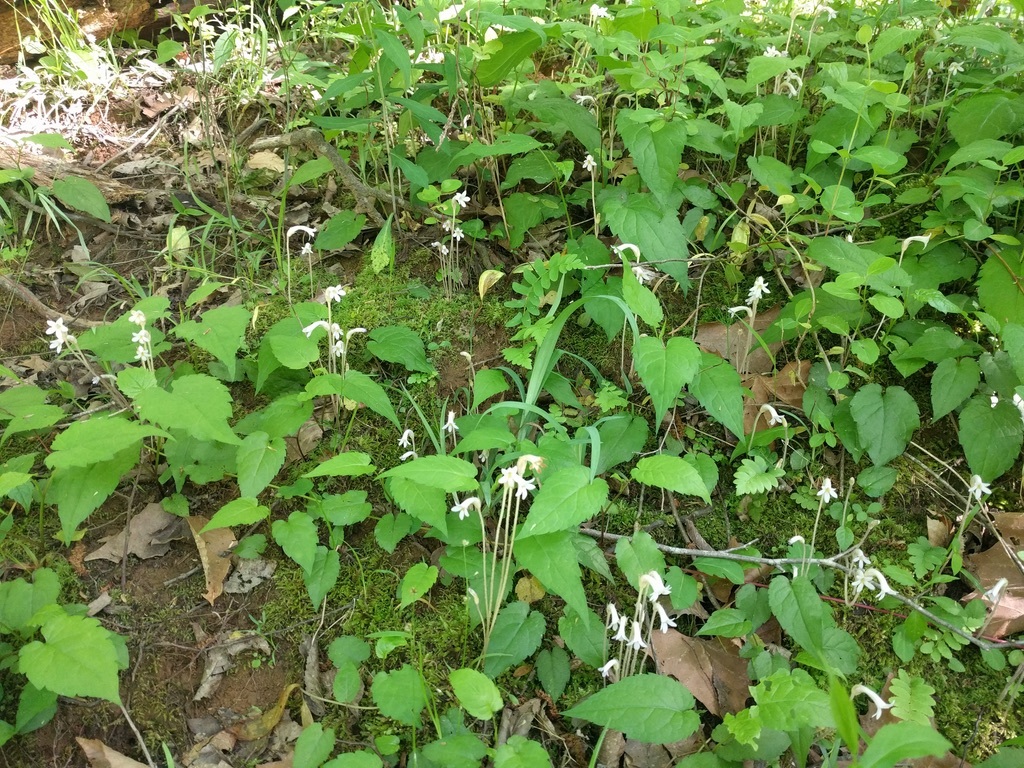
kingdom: Plantae
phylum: Tracheophyta
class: Magnoliopsida
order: Lamiales
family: Orobanchaceae
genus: Aphyllon
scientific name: Aphyllon uniflorum
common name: One-flowered broomrape
